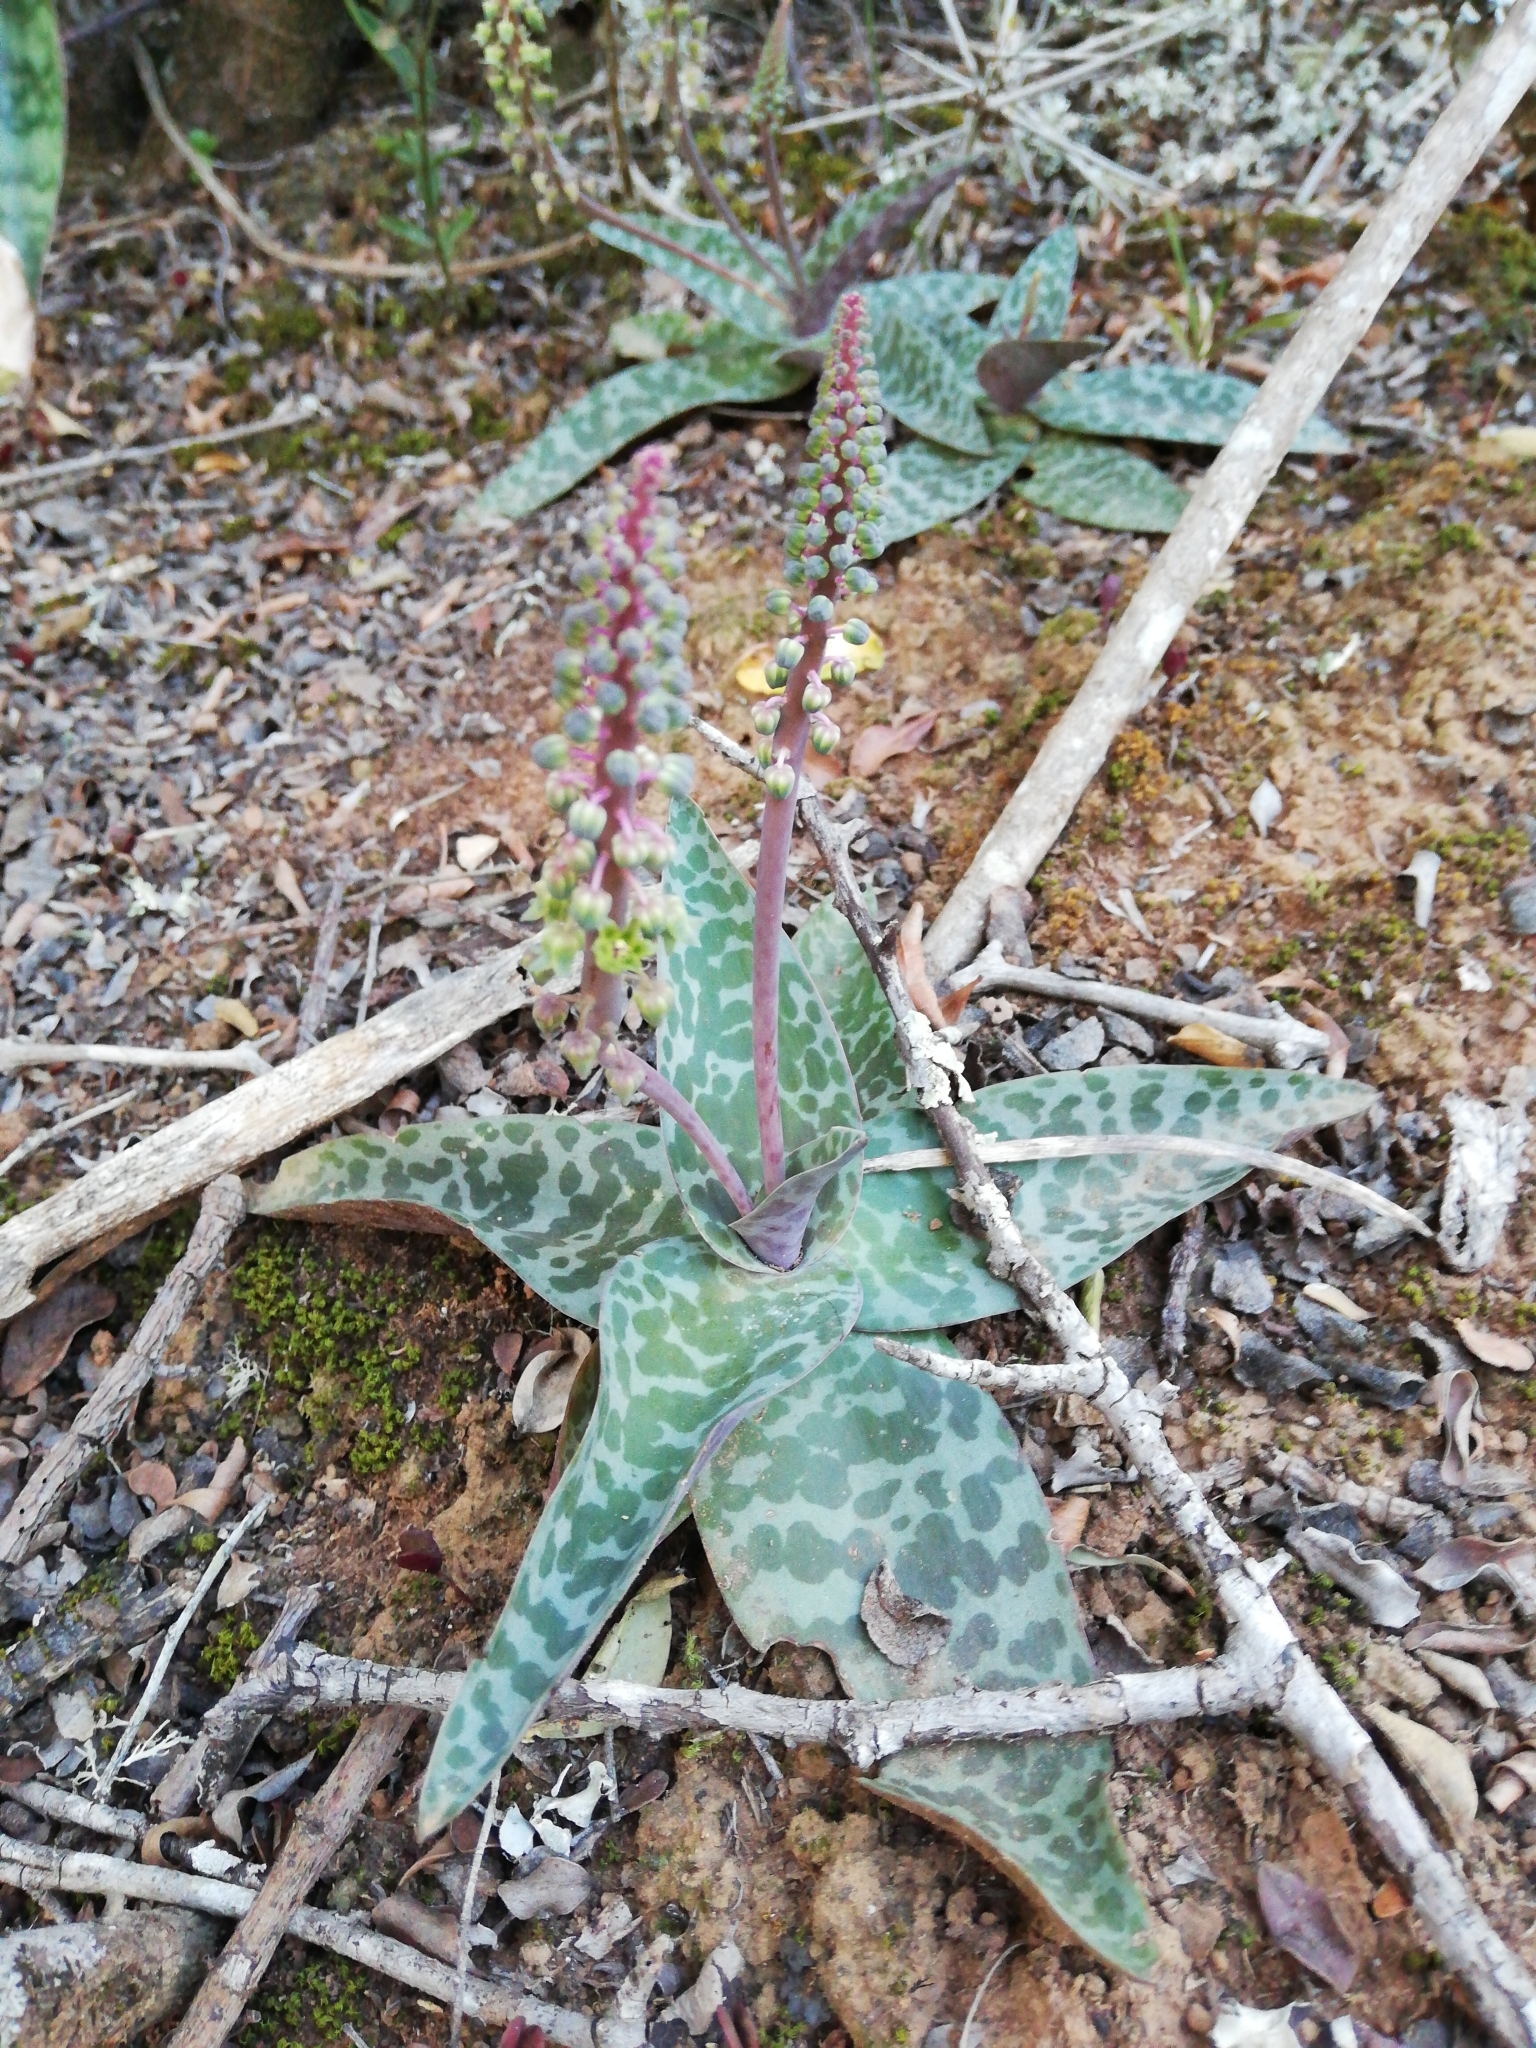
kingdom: Plantae
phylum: Tracheophyta
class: Liliopsida
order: Asparagales
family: Asparagaceae
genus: Ledebouria
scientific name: Ledebouria ensifolia
